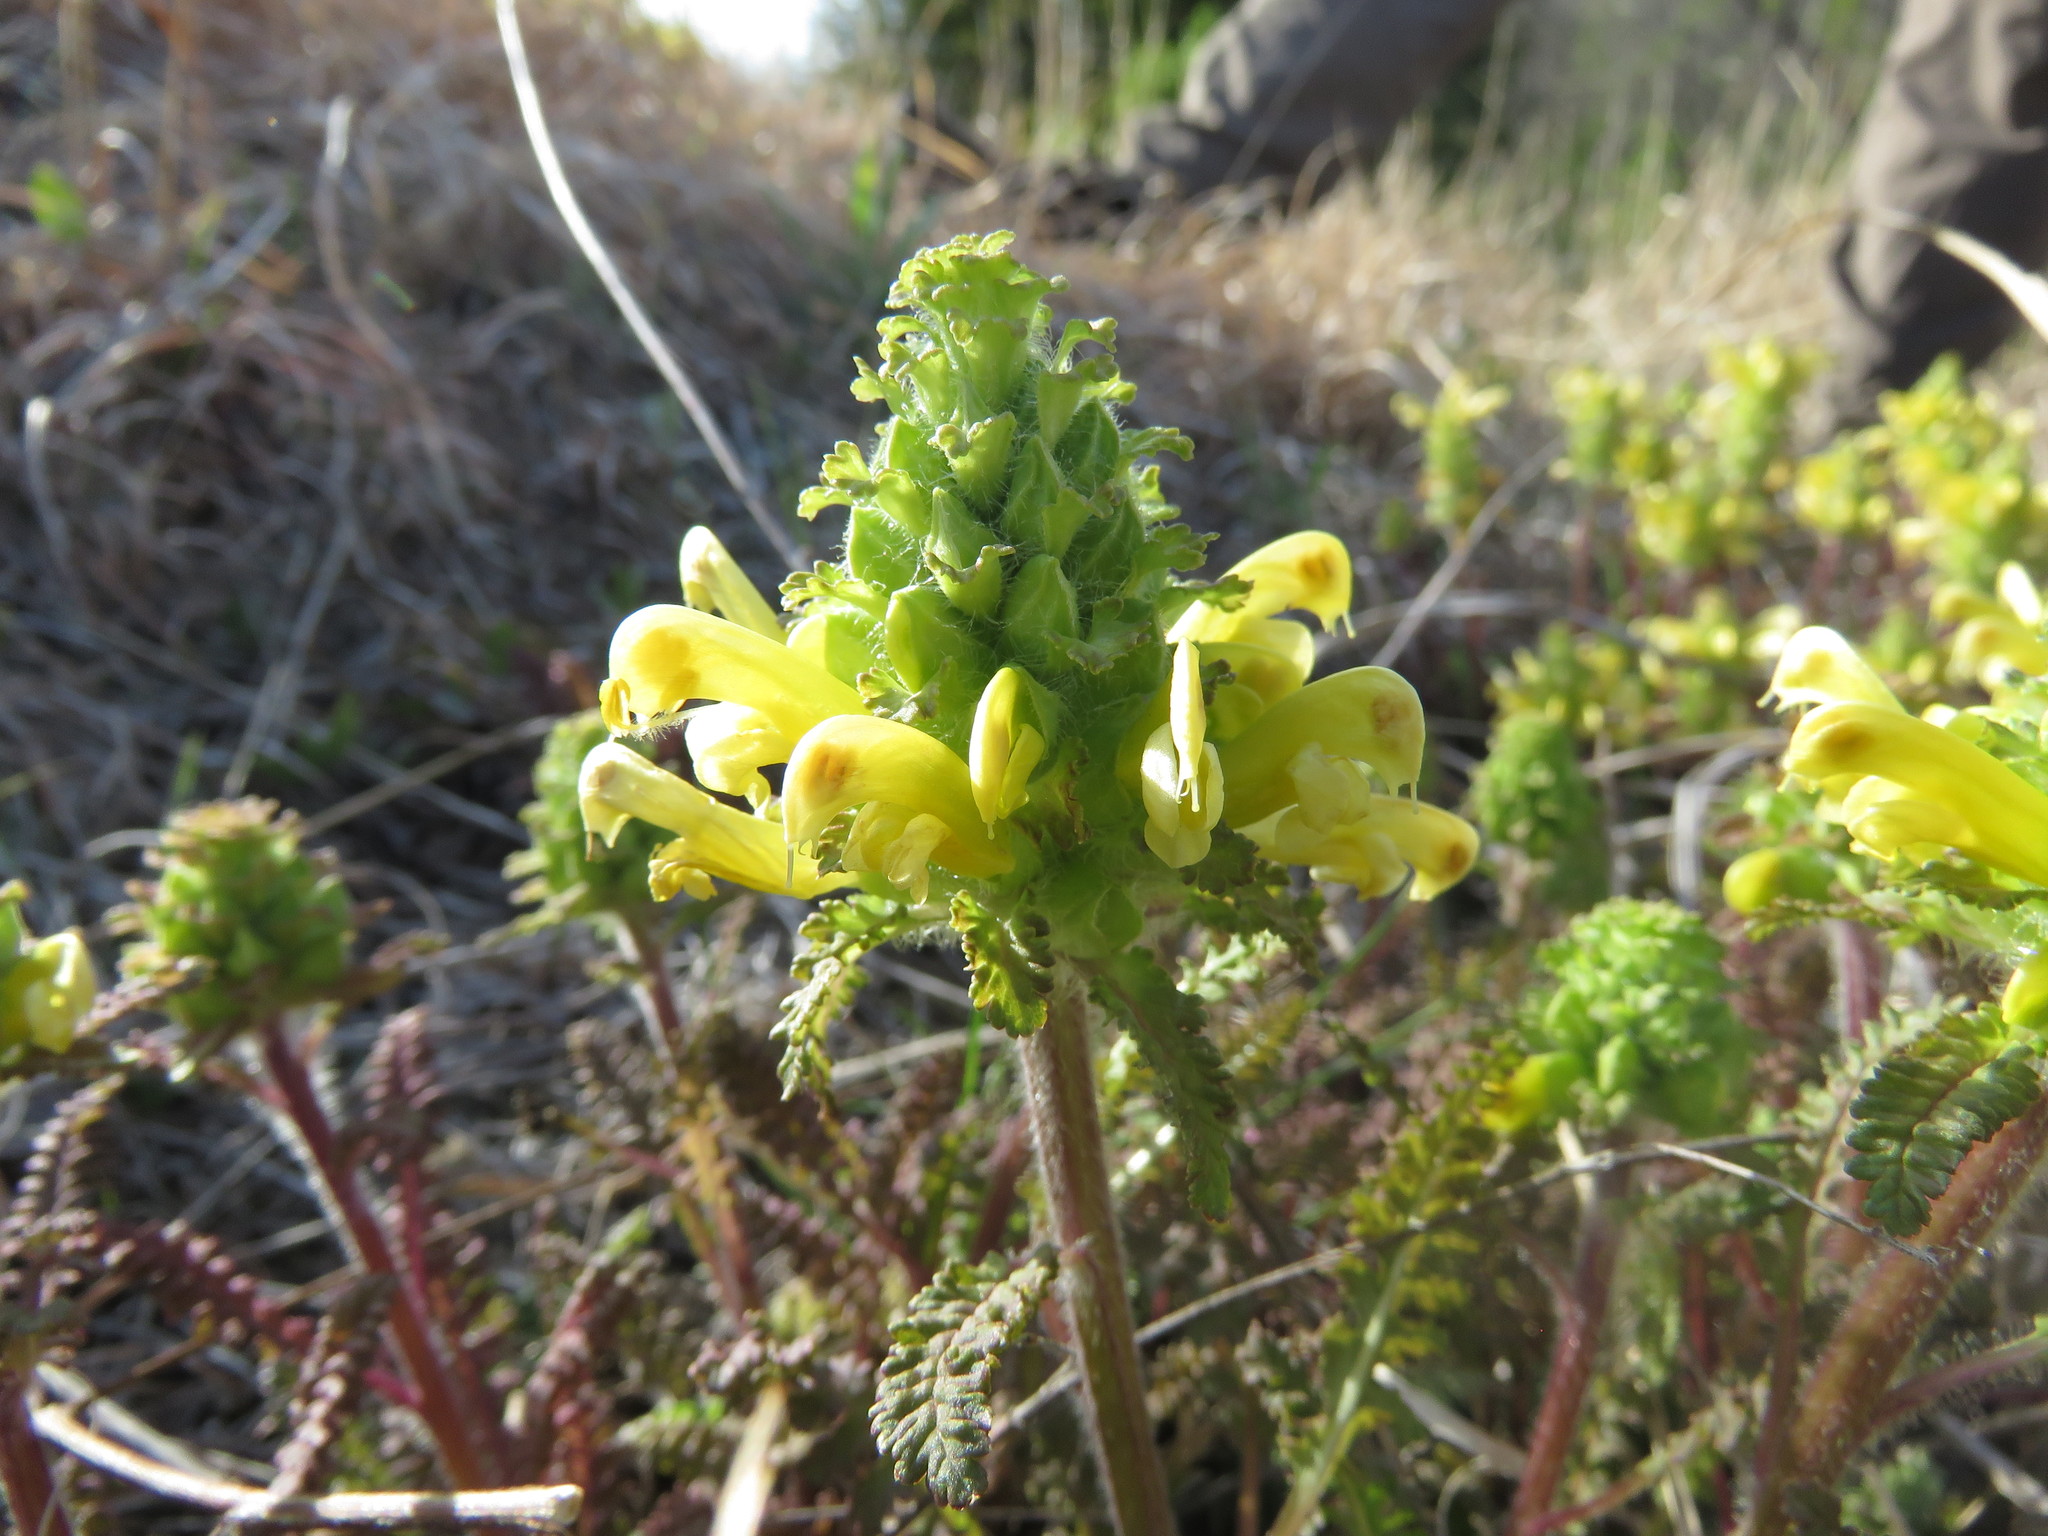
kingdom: Plantae
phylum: Tracheophyta
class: Magnoliopsida
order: Lamiales
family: Orobanchaceae
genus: Pedicularis
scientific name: Pedicularis canadensis
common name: Early lousewort
